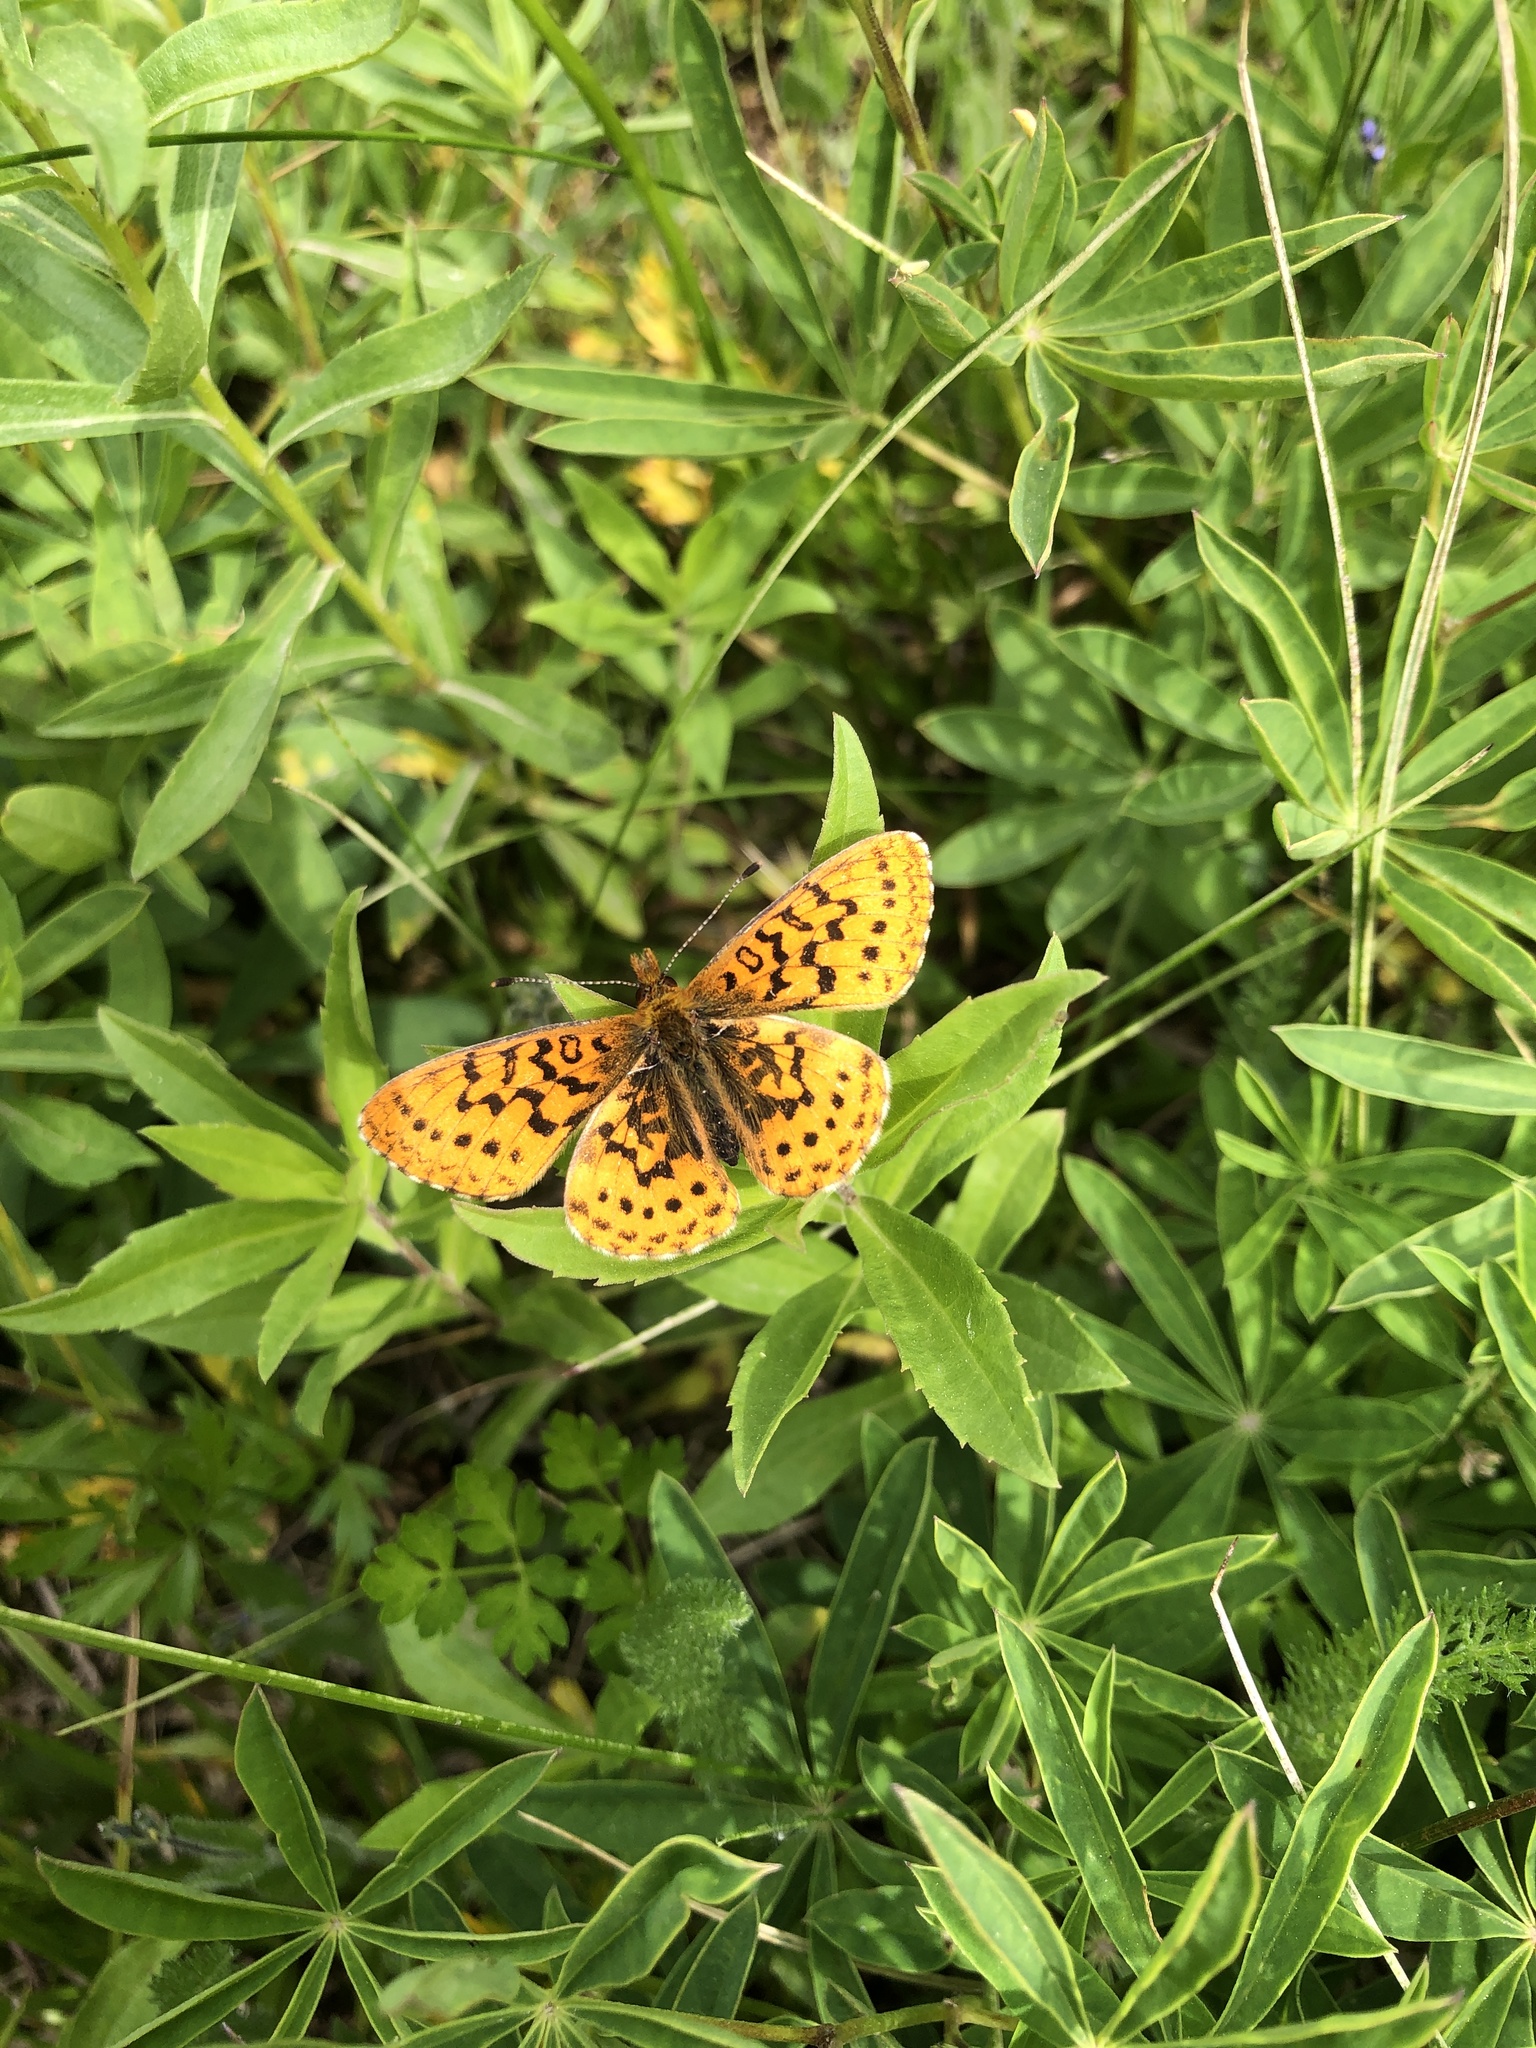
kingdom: Animalia
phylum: Arthropoda
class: Insecta
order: Lepidoptera
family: Nymphalidae
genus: Boloria
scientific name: Boloria epithore
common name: Pacific fritillary
